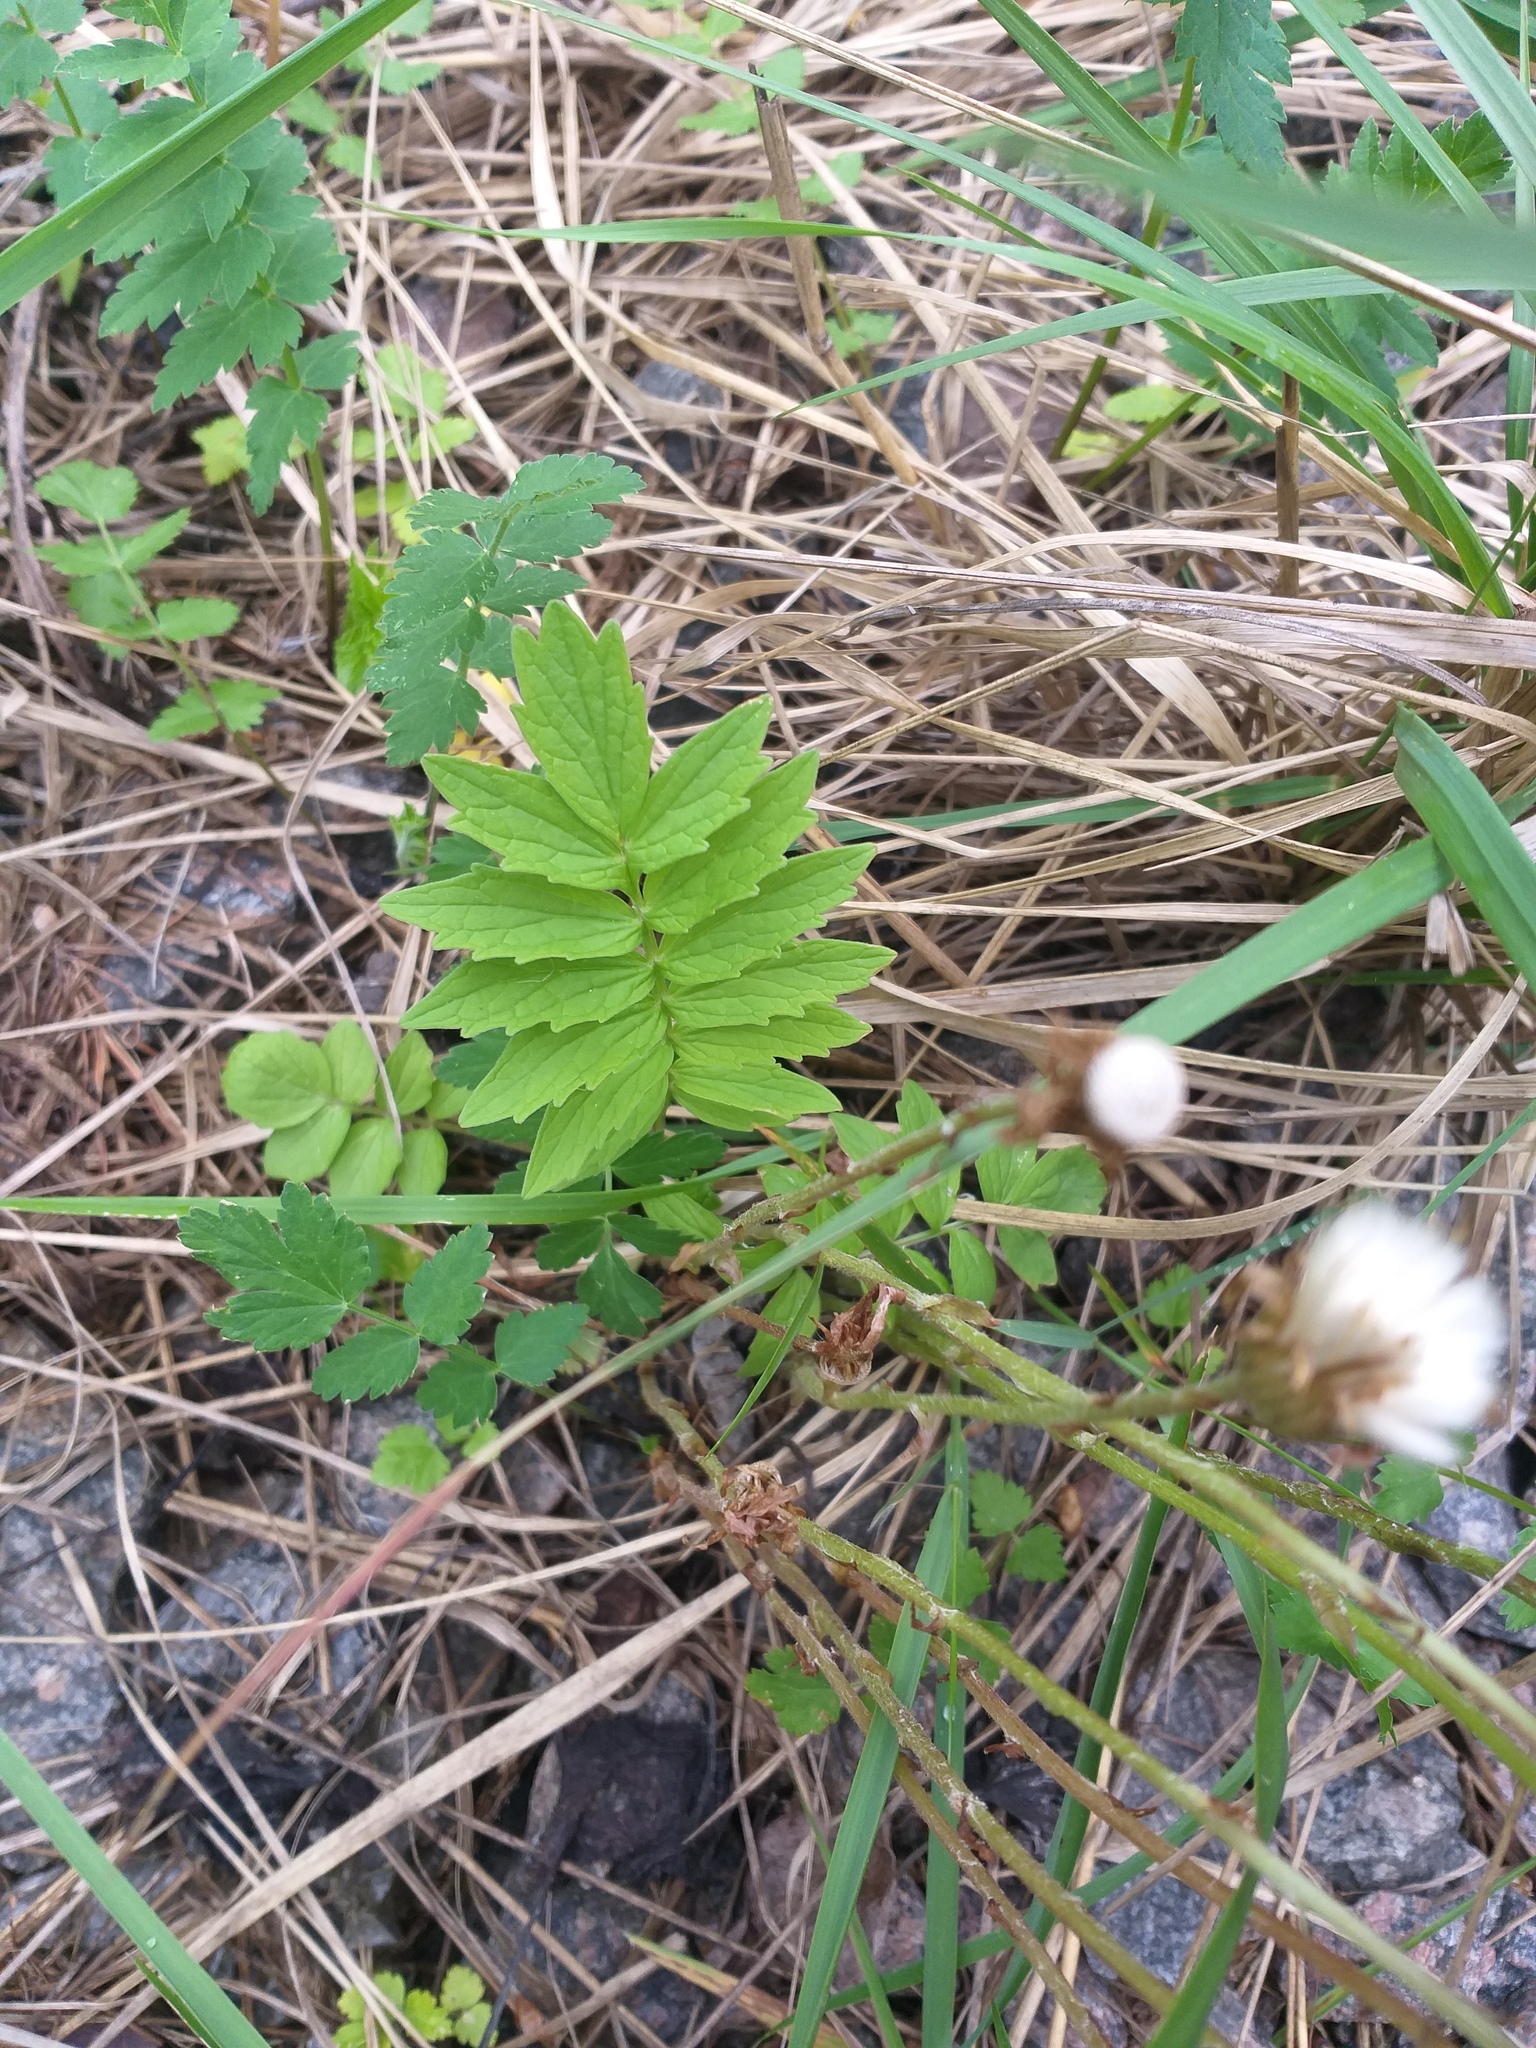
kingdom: Plantae
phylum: Tracheophyta
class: Magnoliopsida
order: Dipsacales
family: Caprifoliaceae
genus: Valeriana
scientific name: Valeriana officinalis
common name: Common valerian
